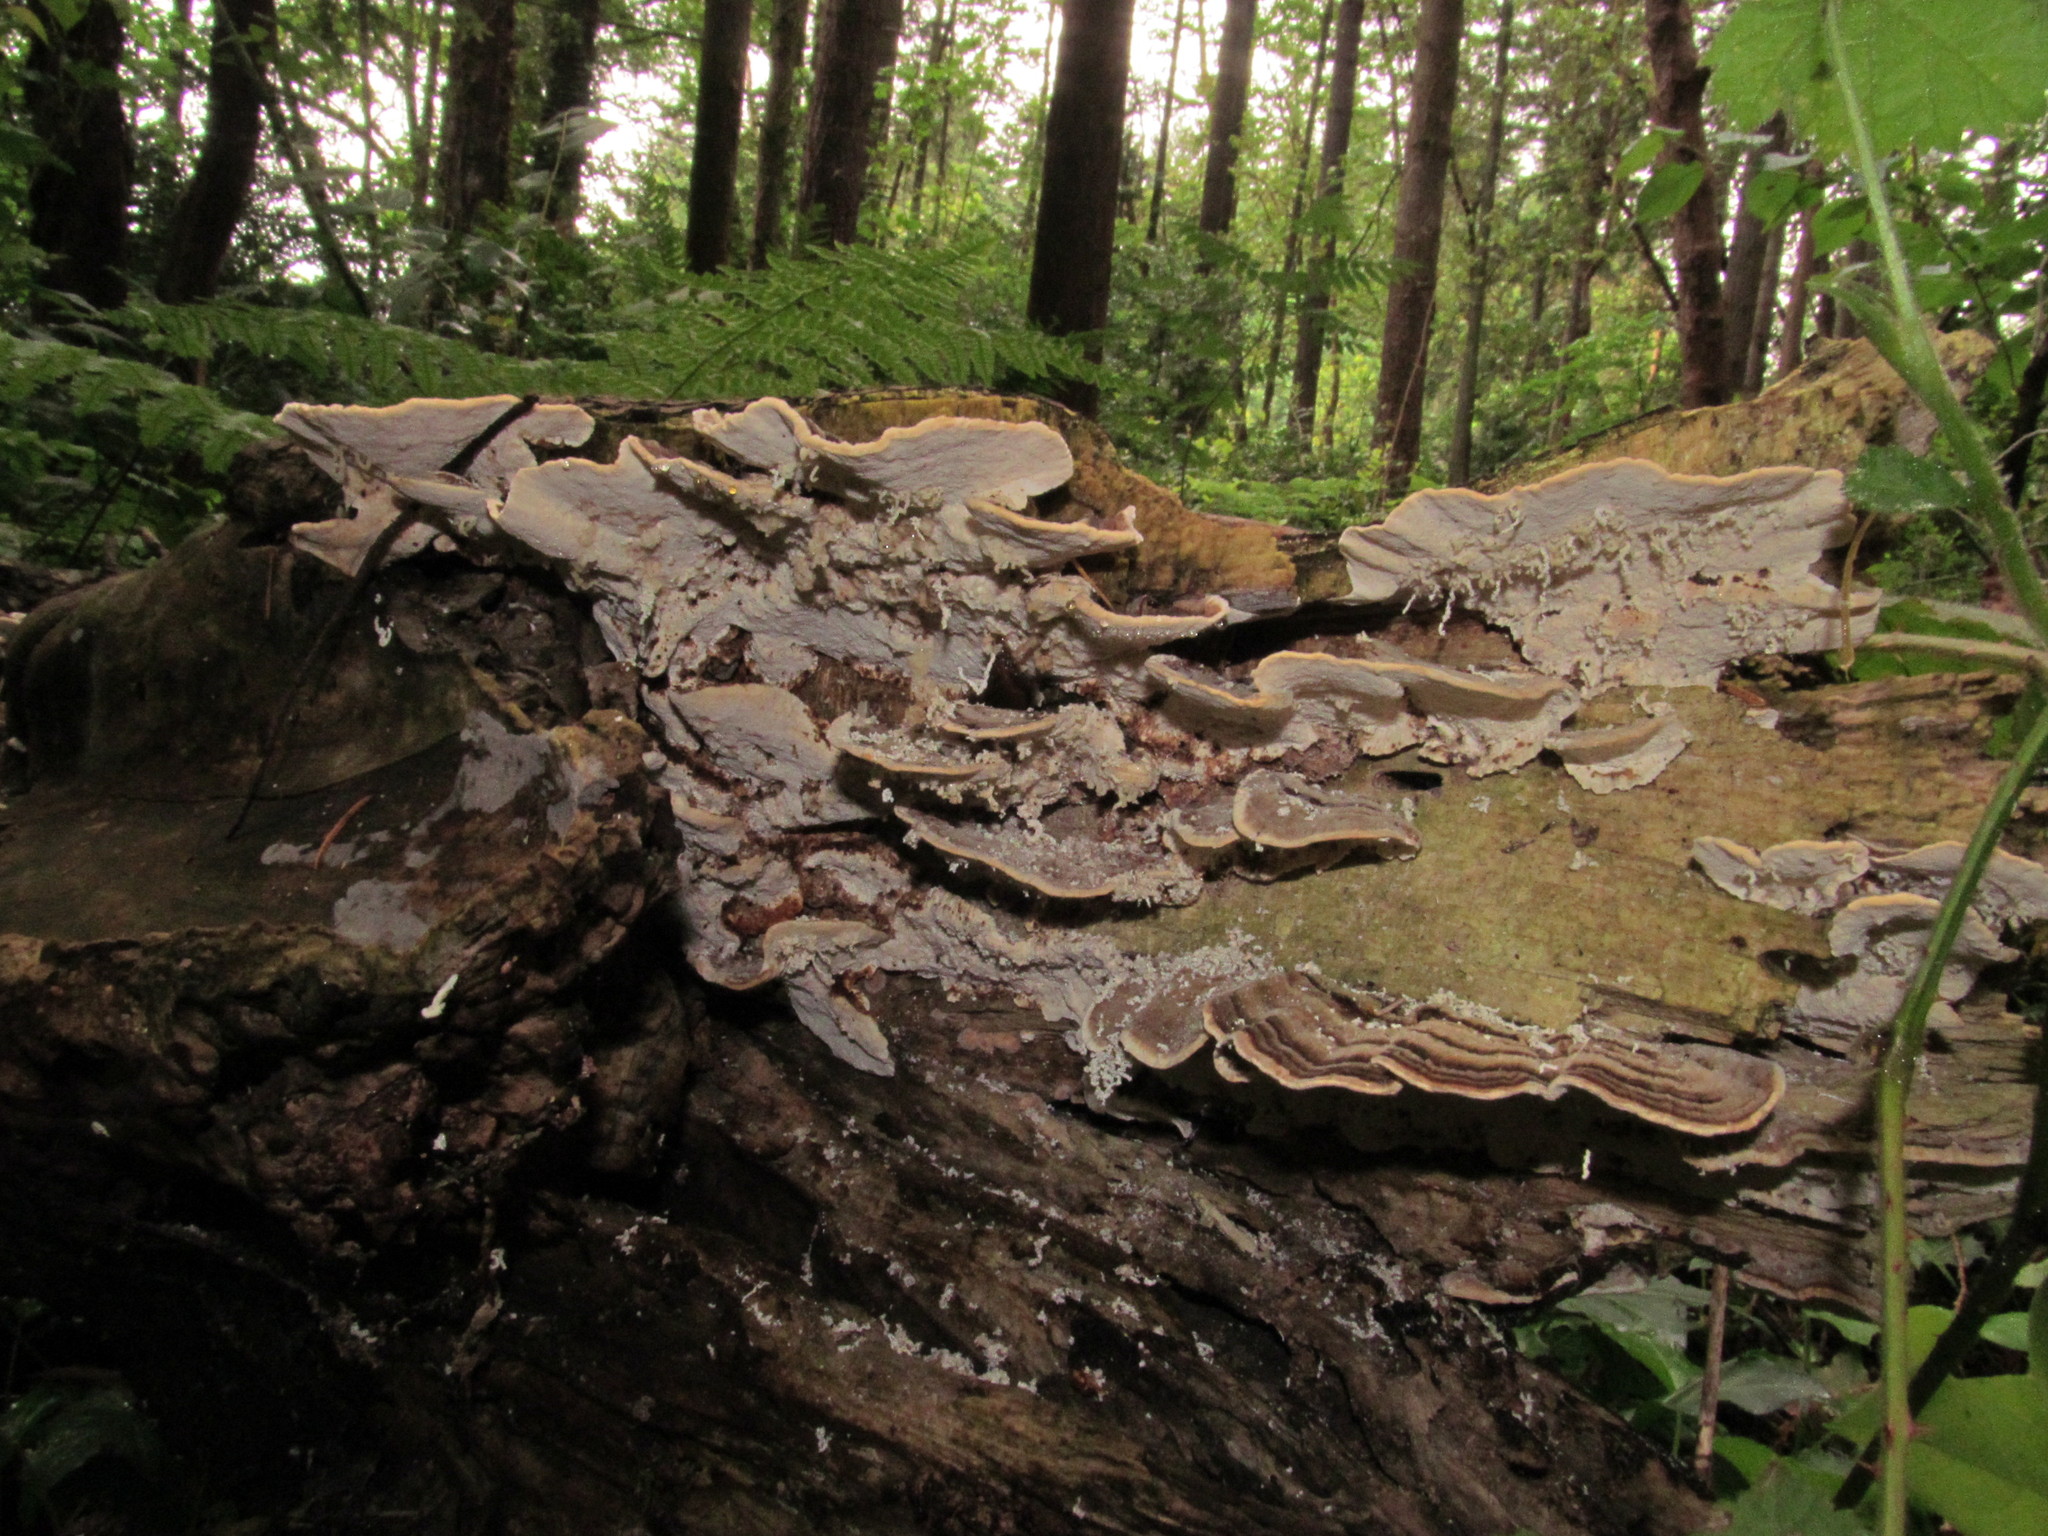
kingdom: Fungi
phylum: Basidiomycota
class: Agaricomycetes
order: Polyporales
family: Polyporaceae
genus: Trametes
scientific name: Trametes versicolor
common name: Turkeytail
